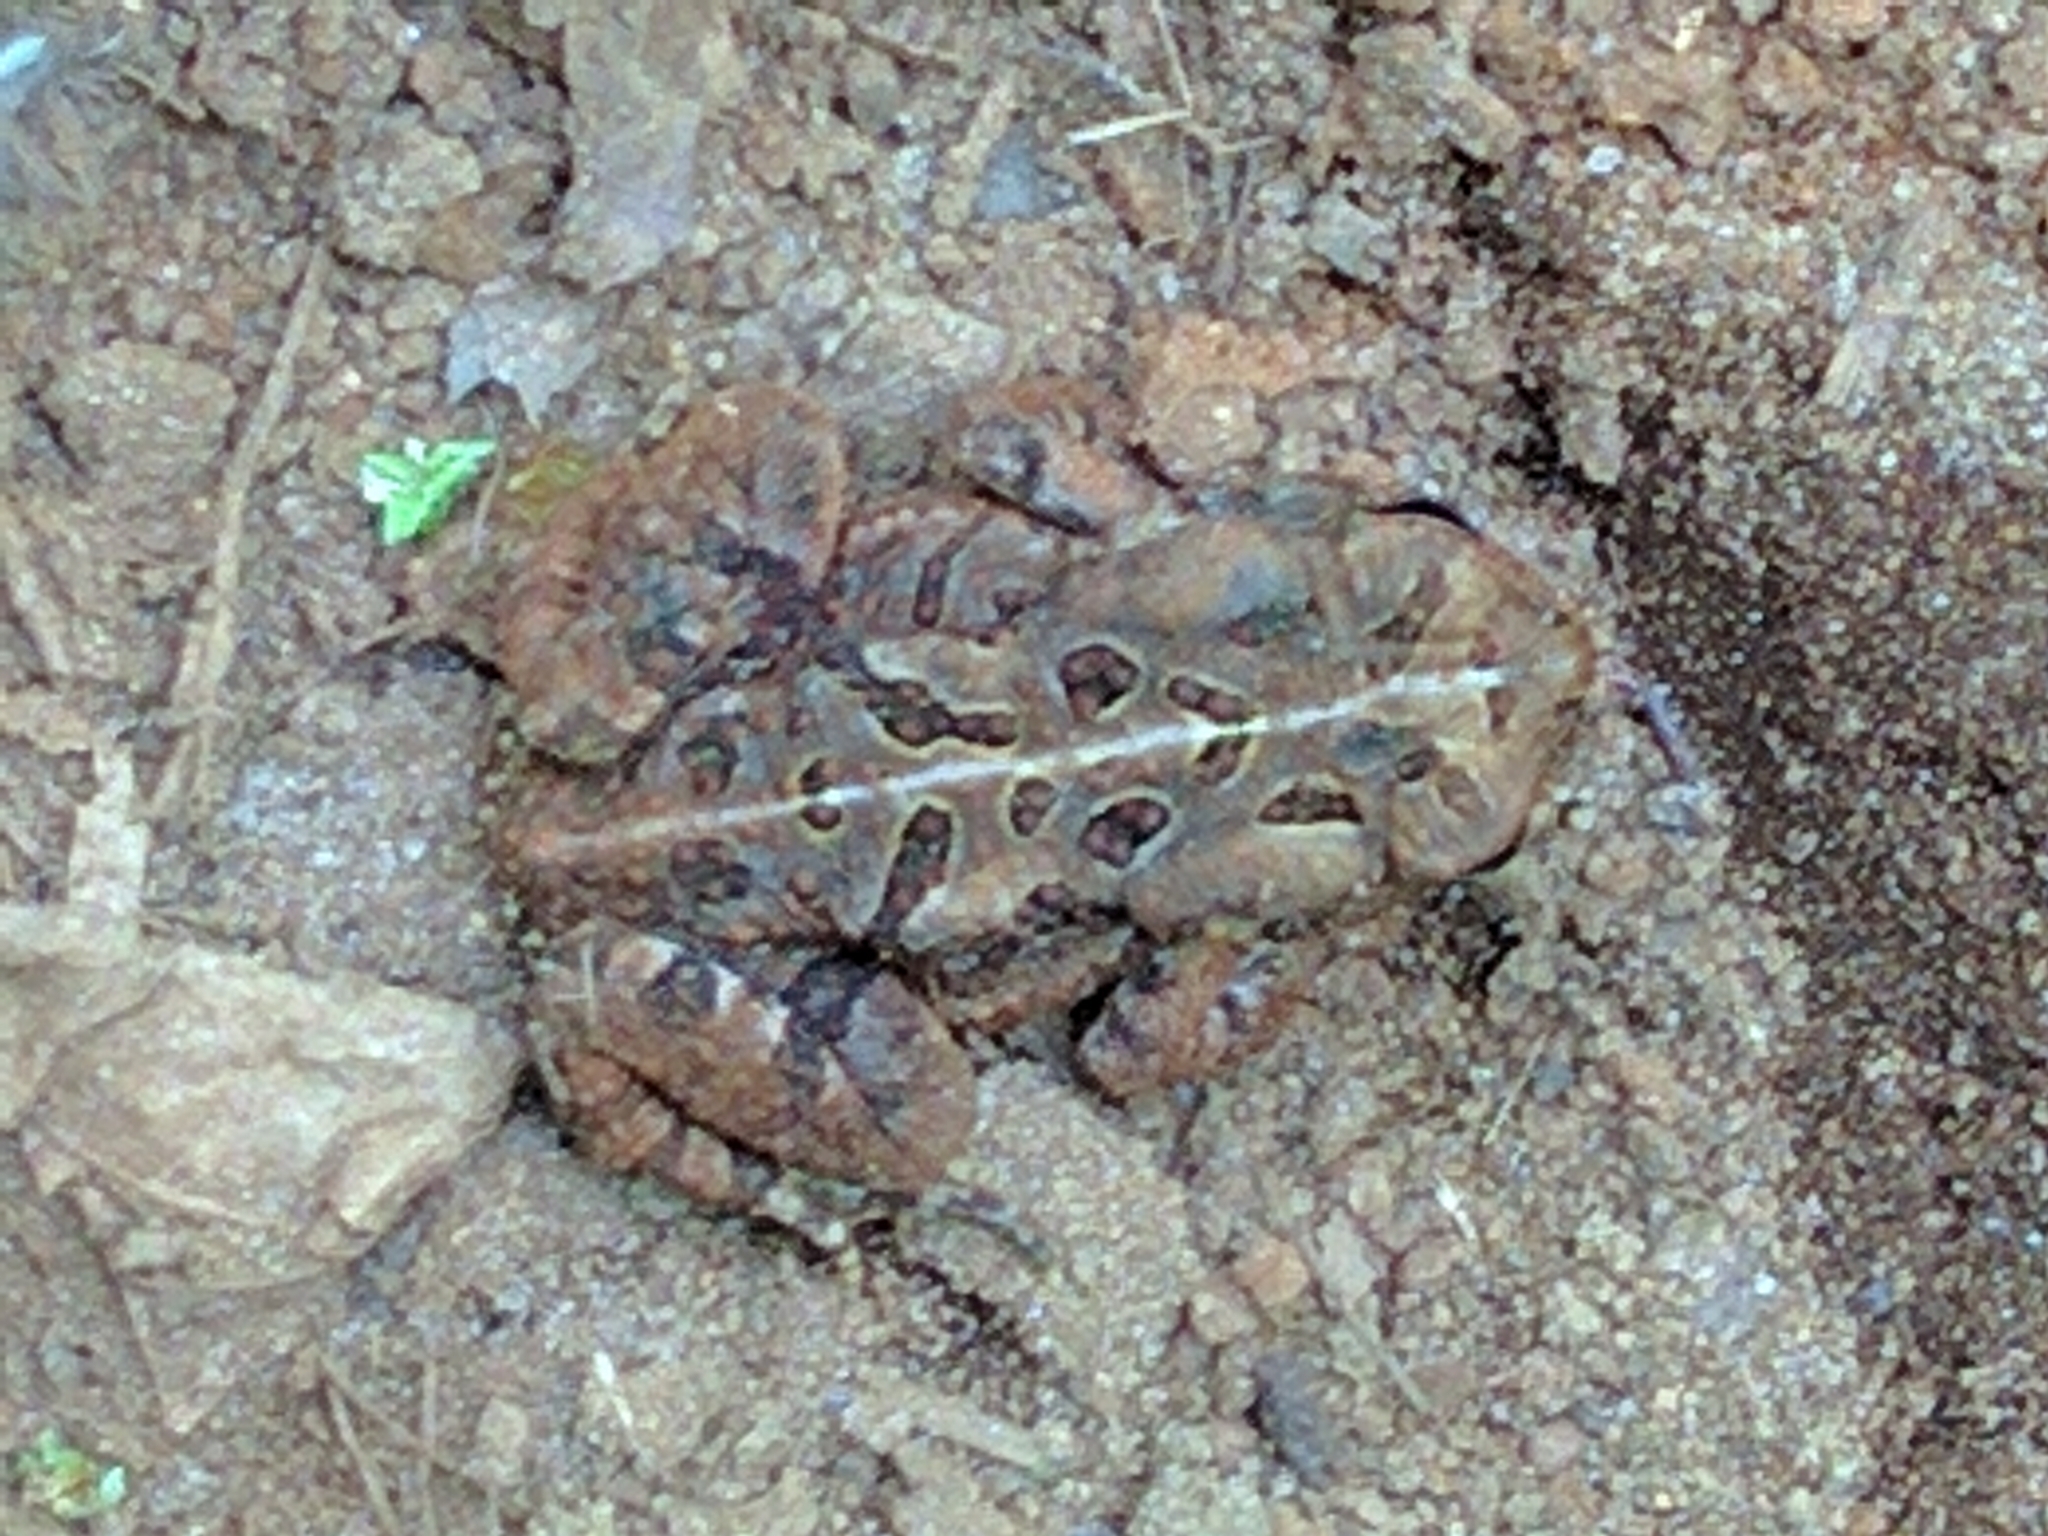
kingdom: Animalia
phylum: Chordata
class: Amphibia
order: Anura
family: Bufonidae
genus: Anaxyrus
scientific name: Anaxyrus fowleri
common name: Fowler's toad
